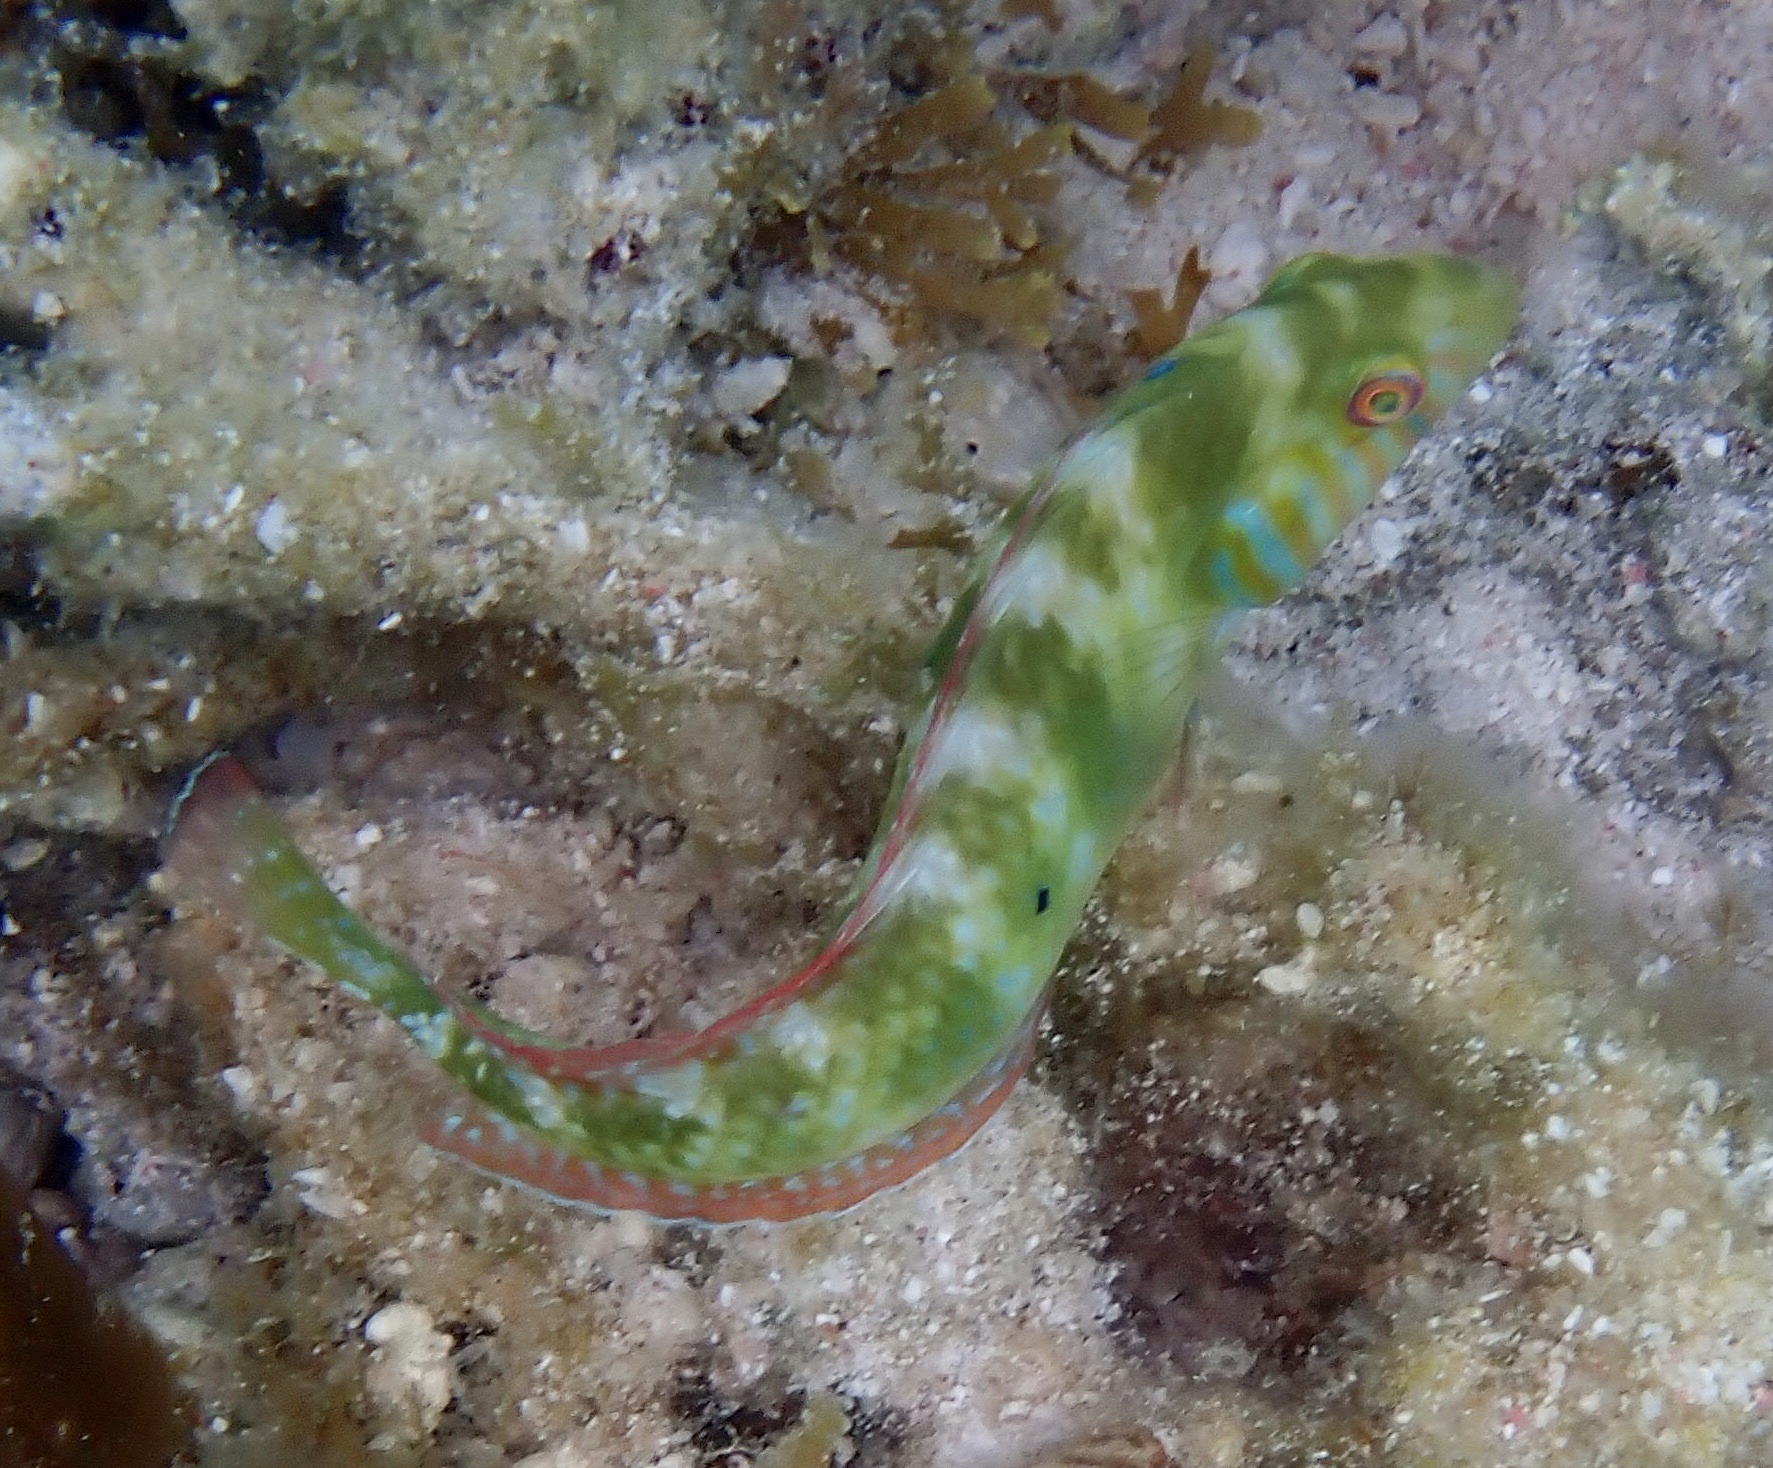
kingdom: Animalia
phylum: Chordata
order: Perciformes
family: Labridae
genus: Xyrichtys
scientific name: Xyrichtys splendens
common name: Green razorfish
